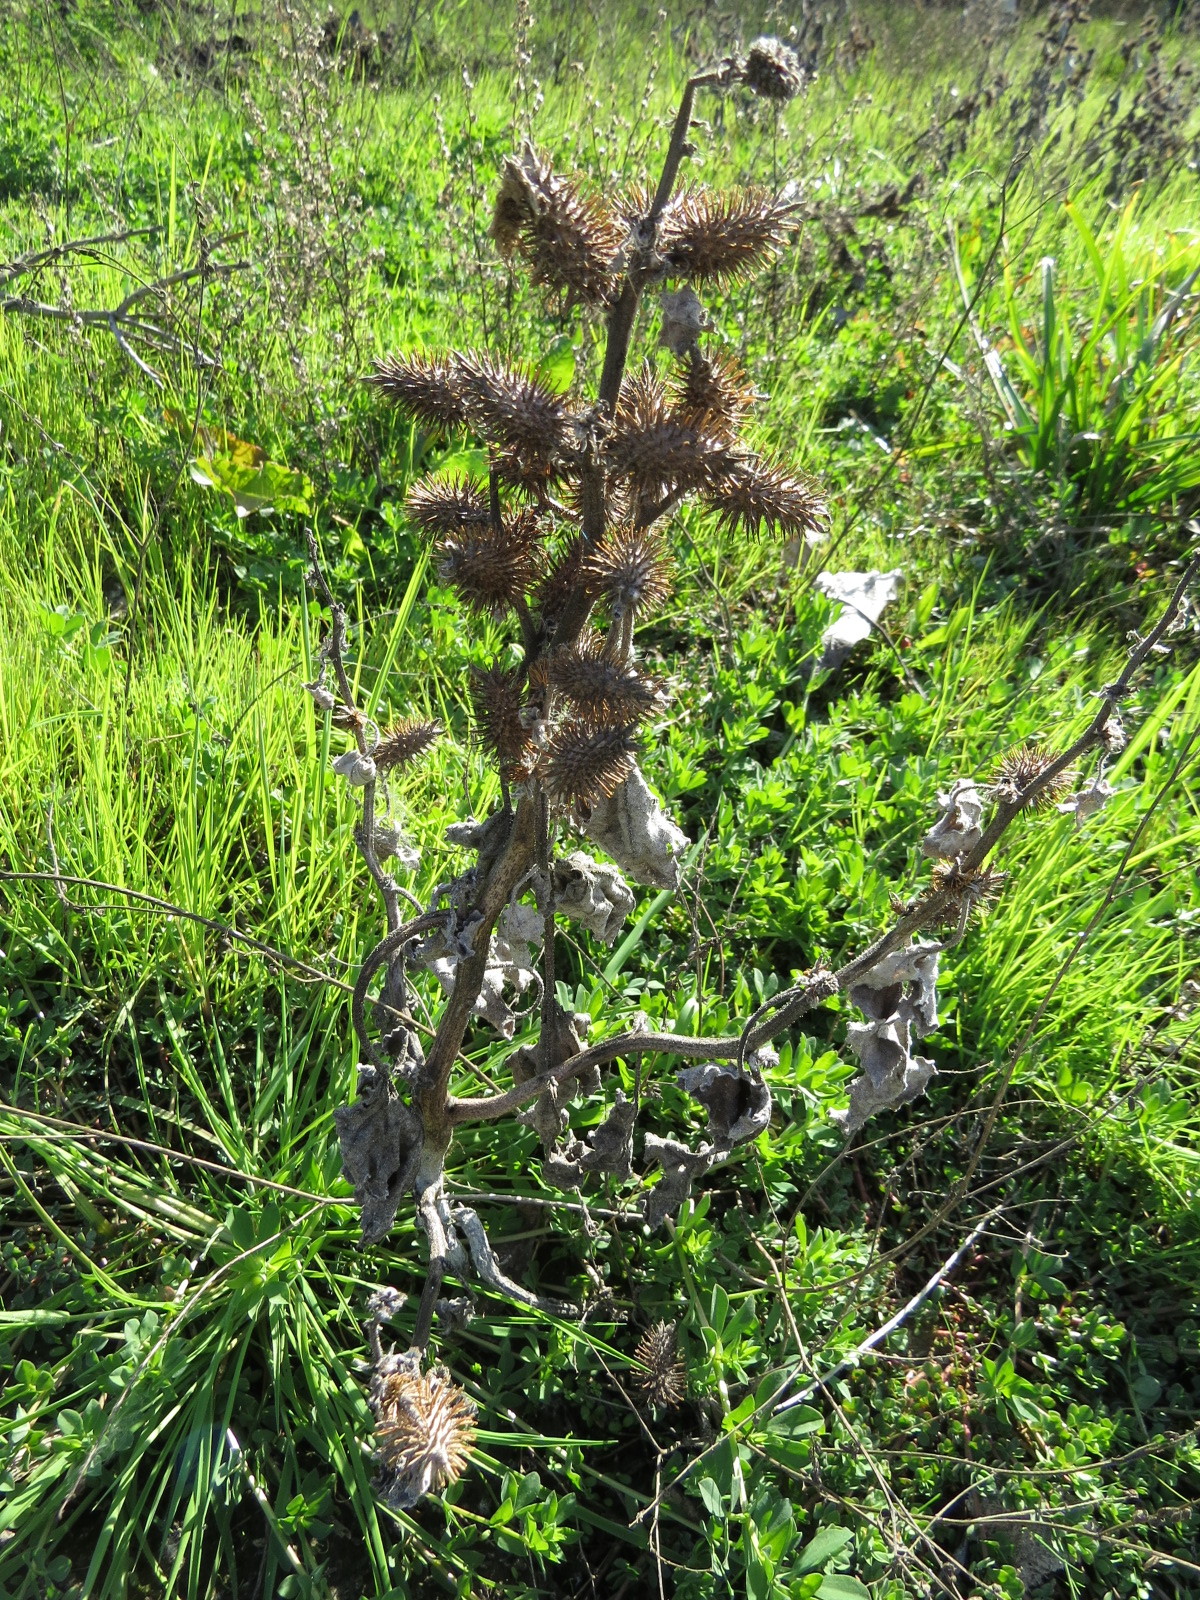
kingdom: Plantae
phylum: Tracheophyta
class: Magnoliopsida
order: Asterales
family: Asteraceae
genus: Xanthium
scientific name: Xanthium strumarium
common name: Rough cocklebur
